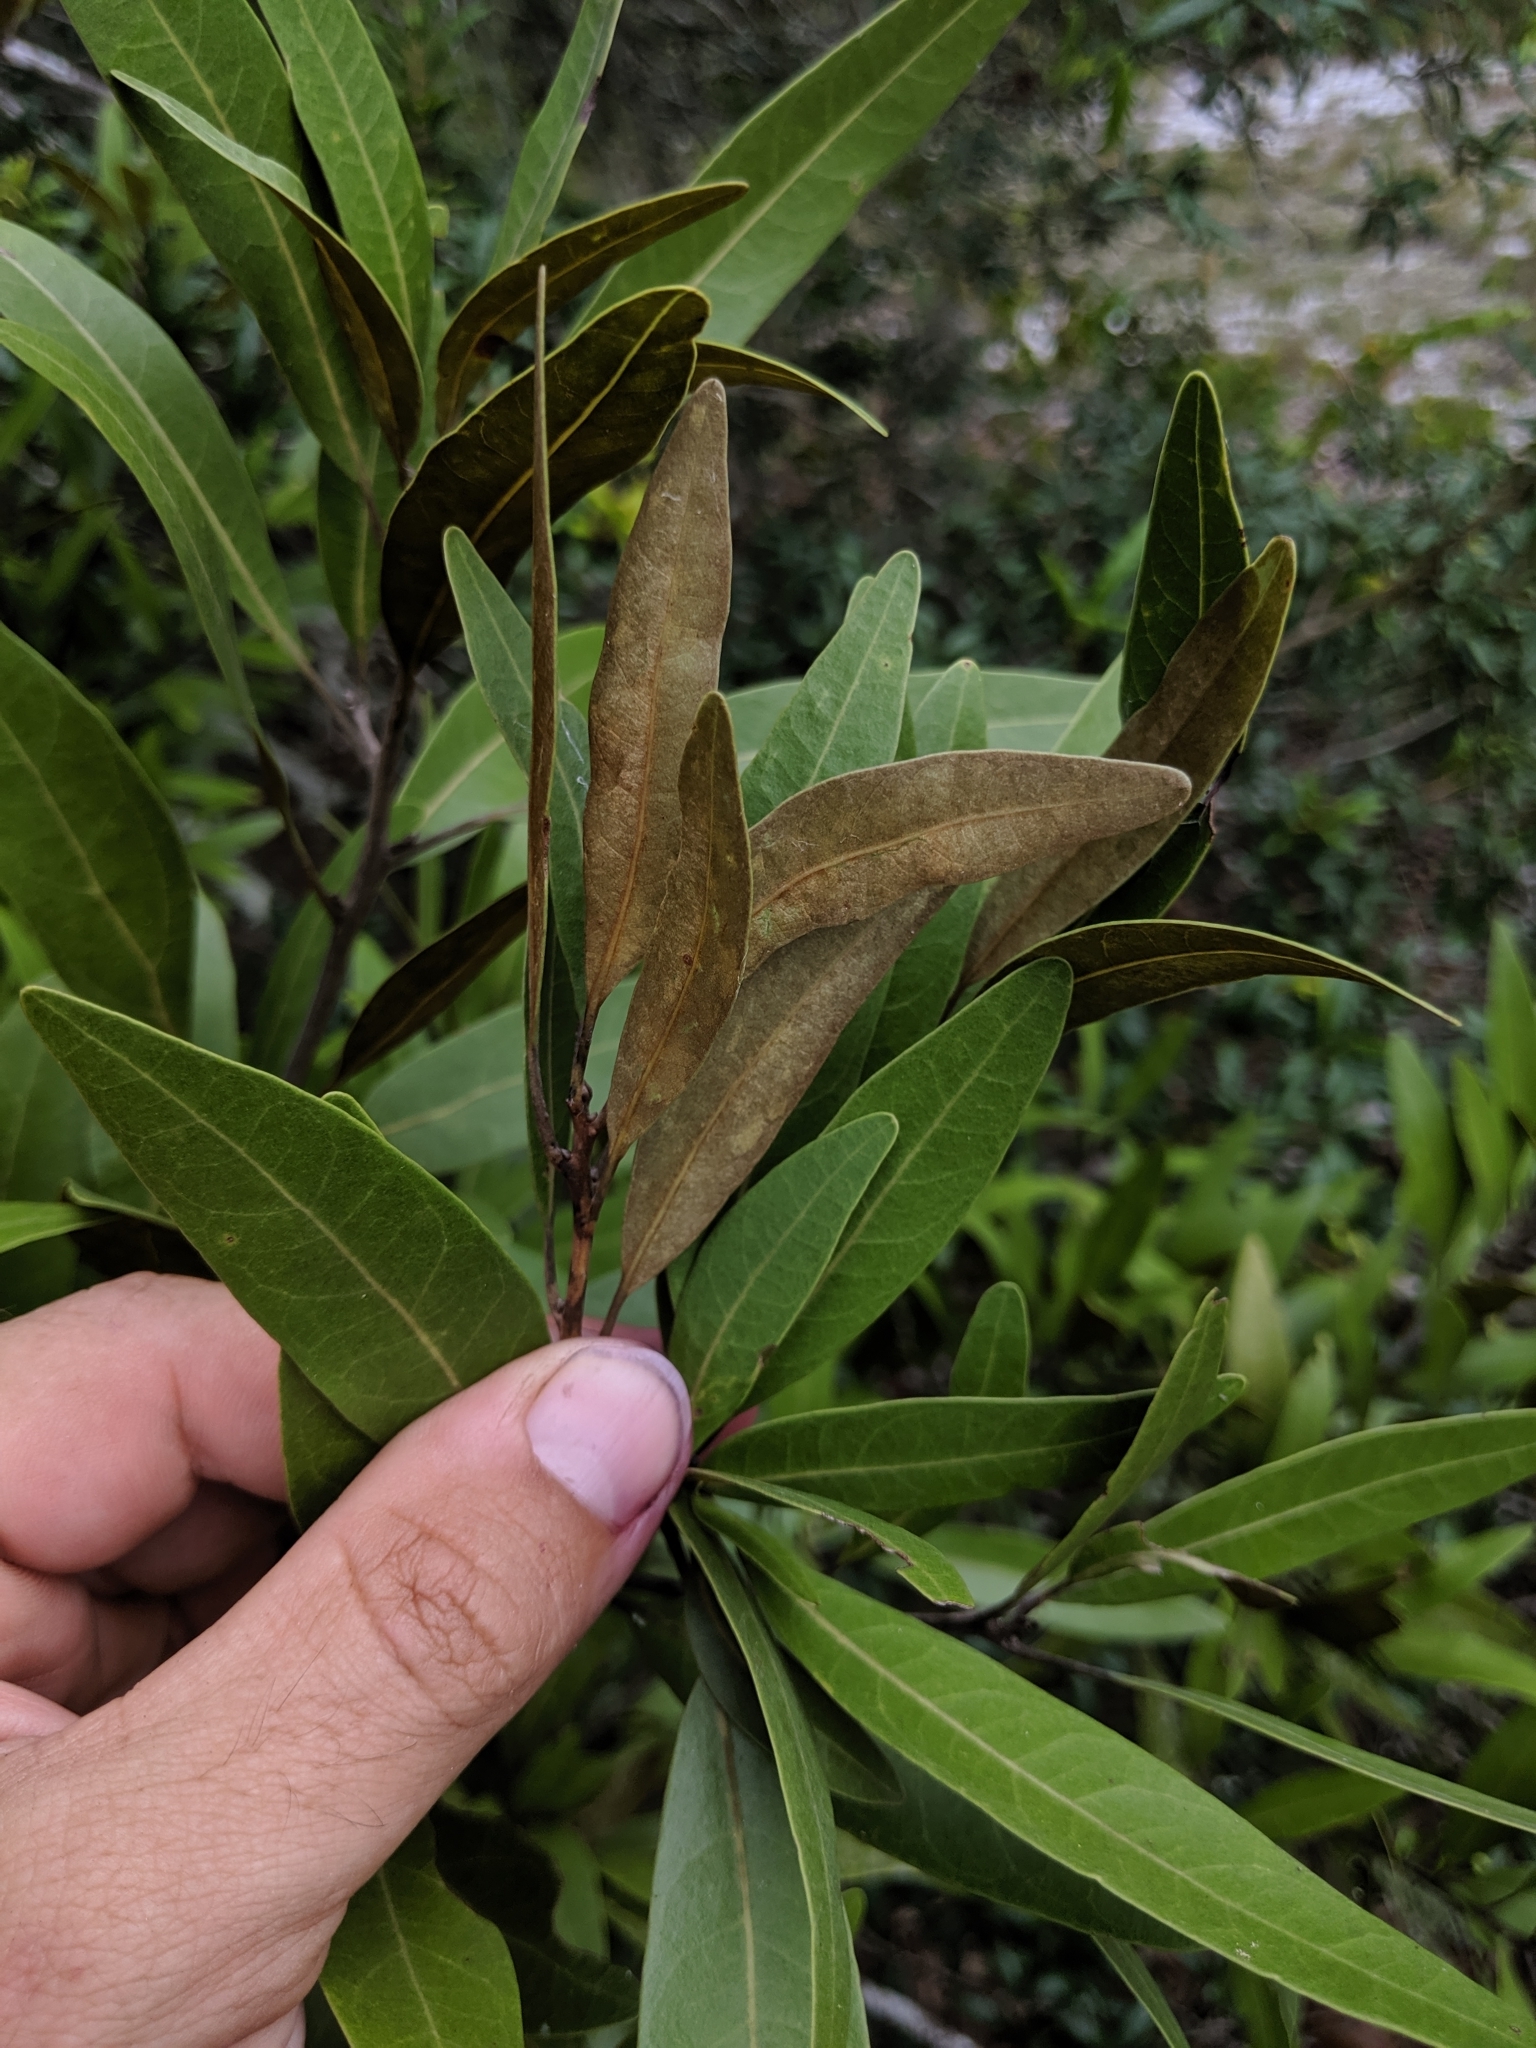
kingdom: Plantae
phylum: Tracheophyta
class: Magnoliopsida
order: Laurales
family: Lauraceae
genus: Persea
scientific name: Persea humilis
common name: Silkbay
